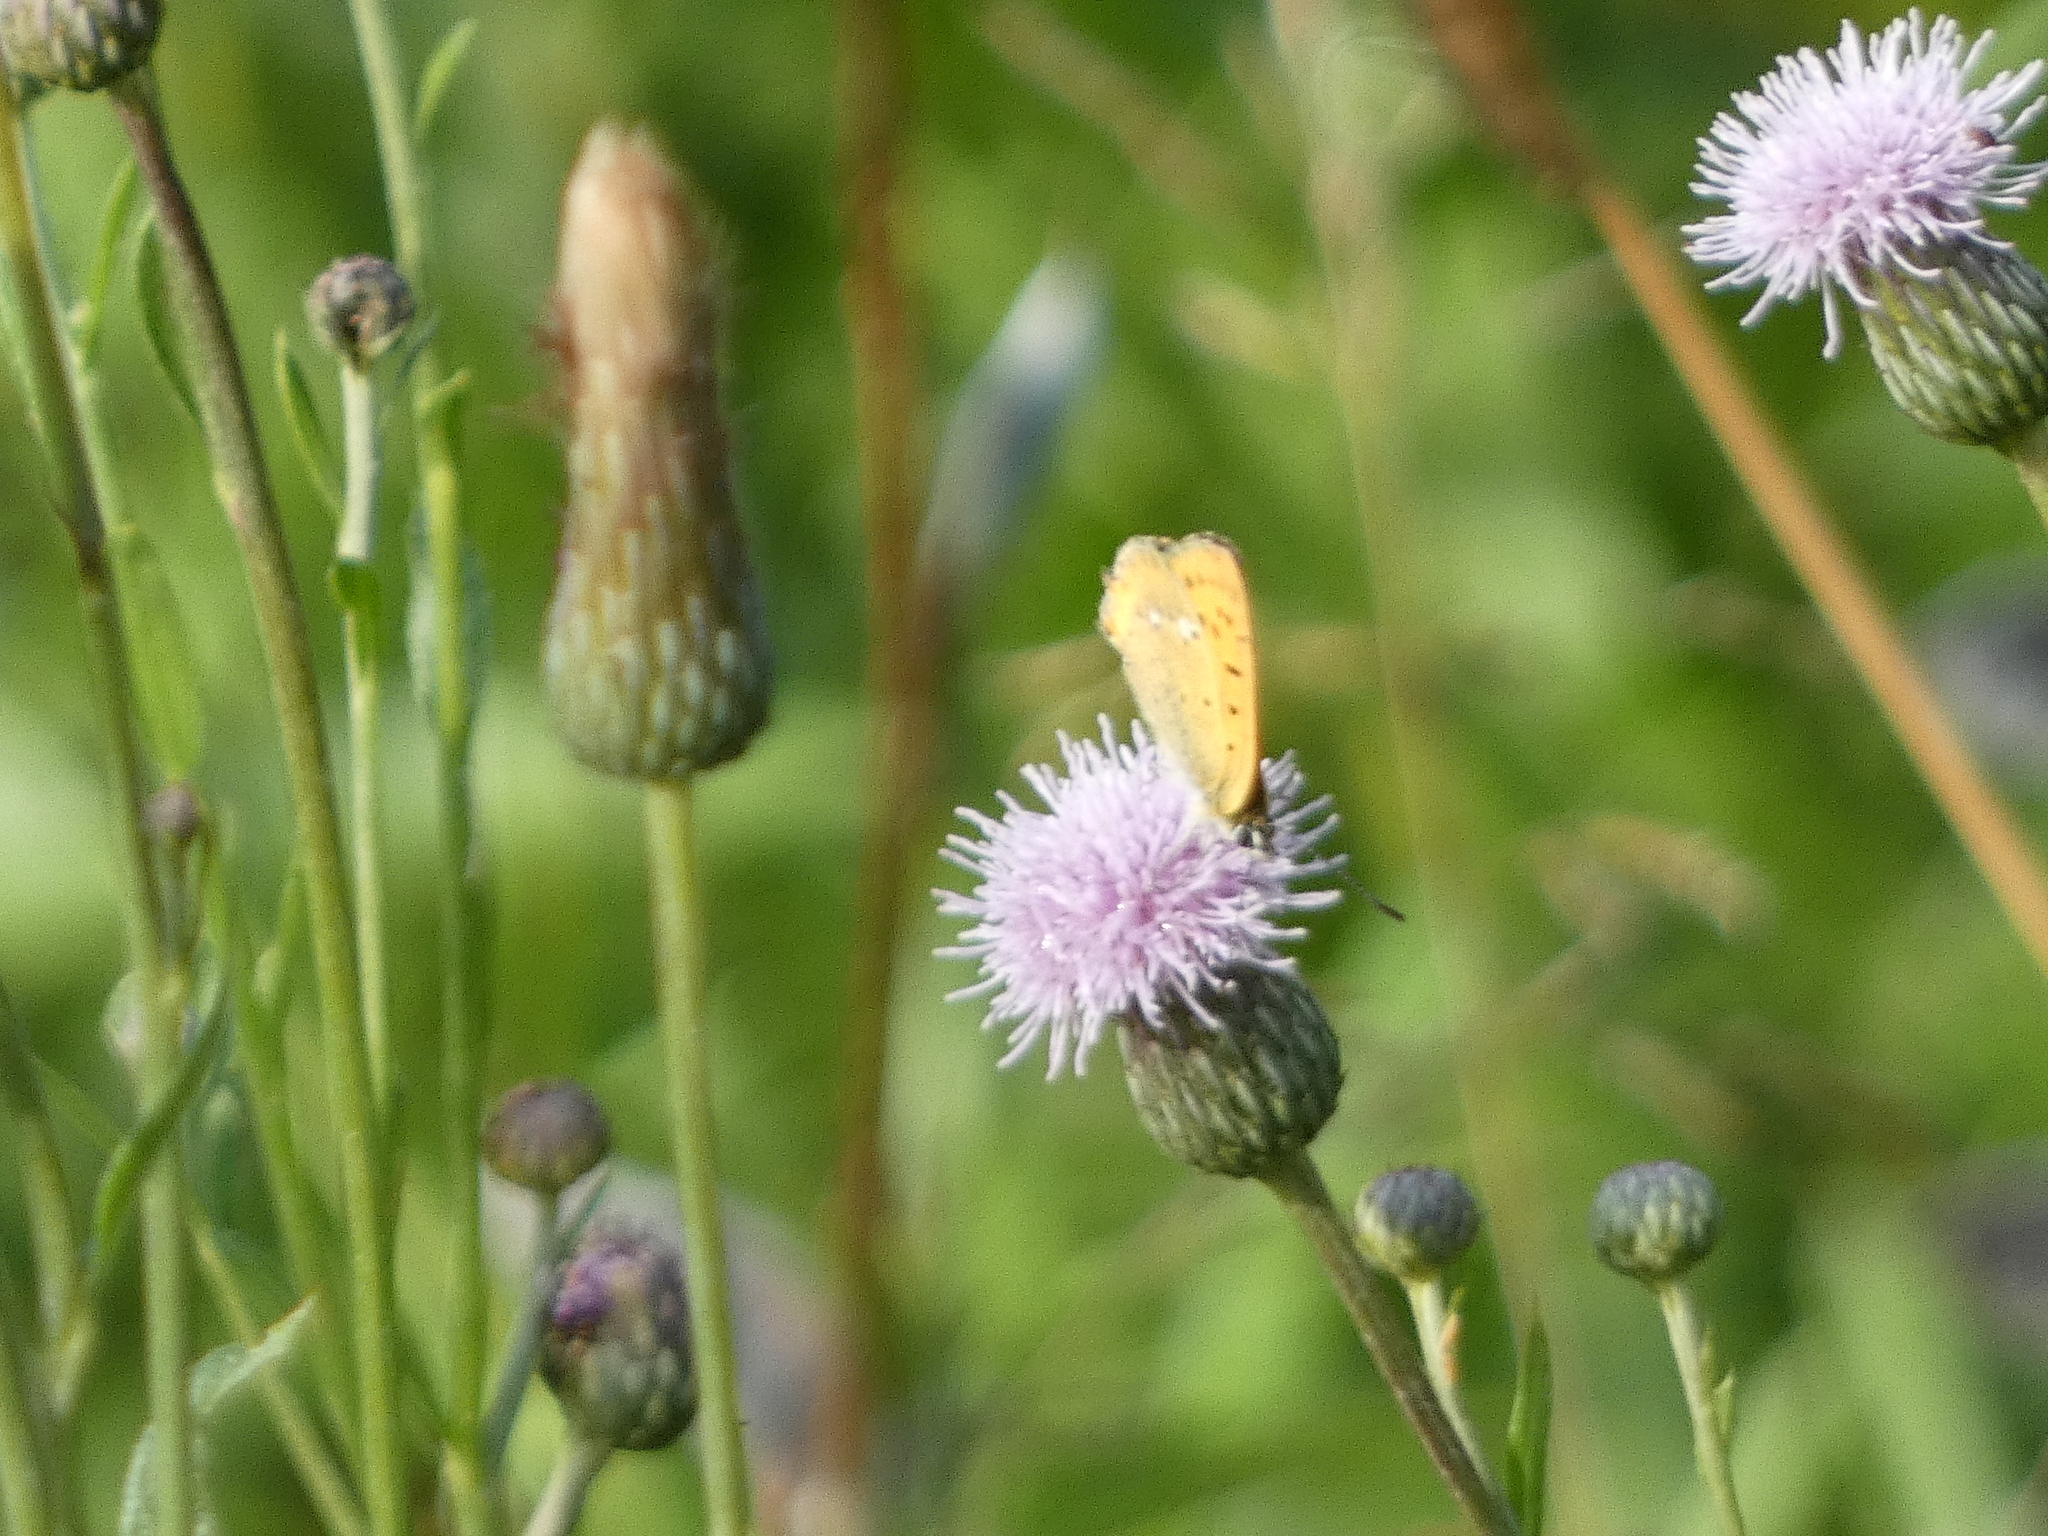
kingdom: Animalia
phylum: Arthropoda
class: Insecta
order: Lepidoptera
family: Lycaenidae
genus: Lycaena
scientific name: Lycaena virgaureae
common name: Scarce copper
